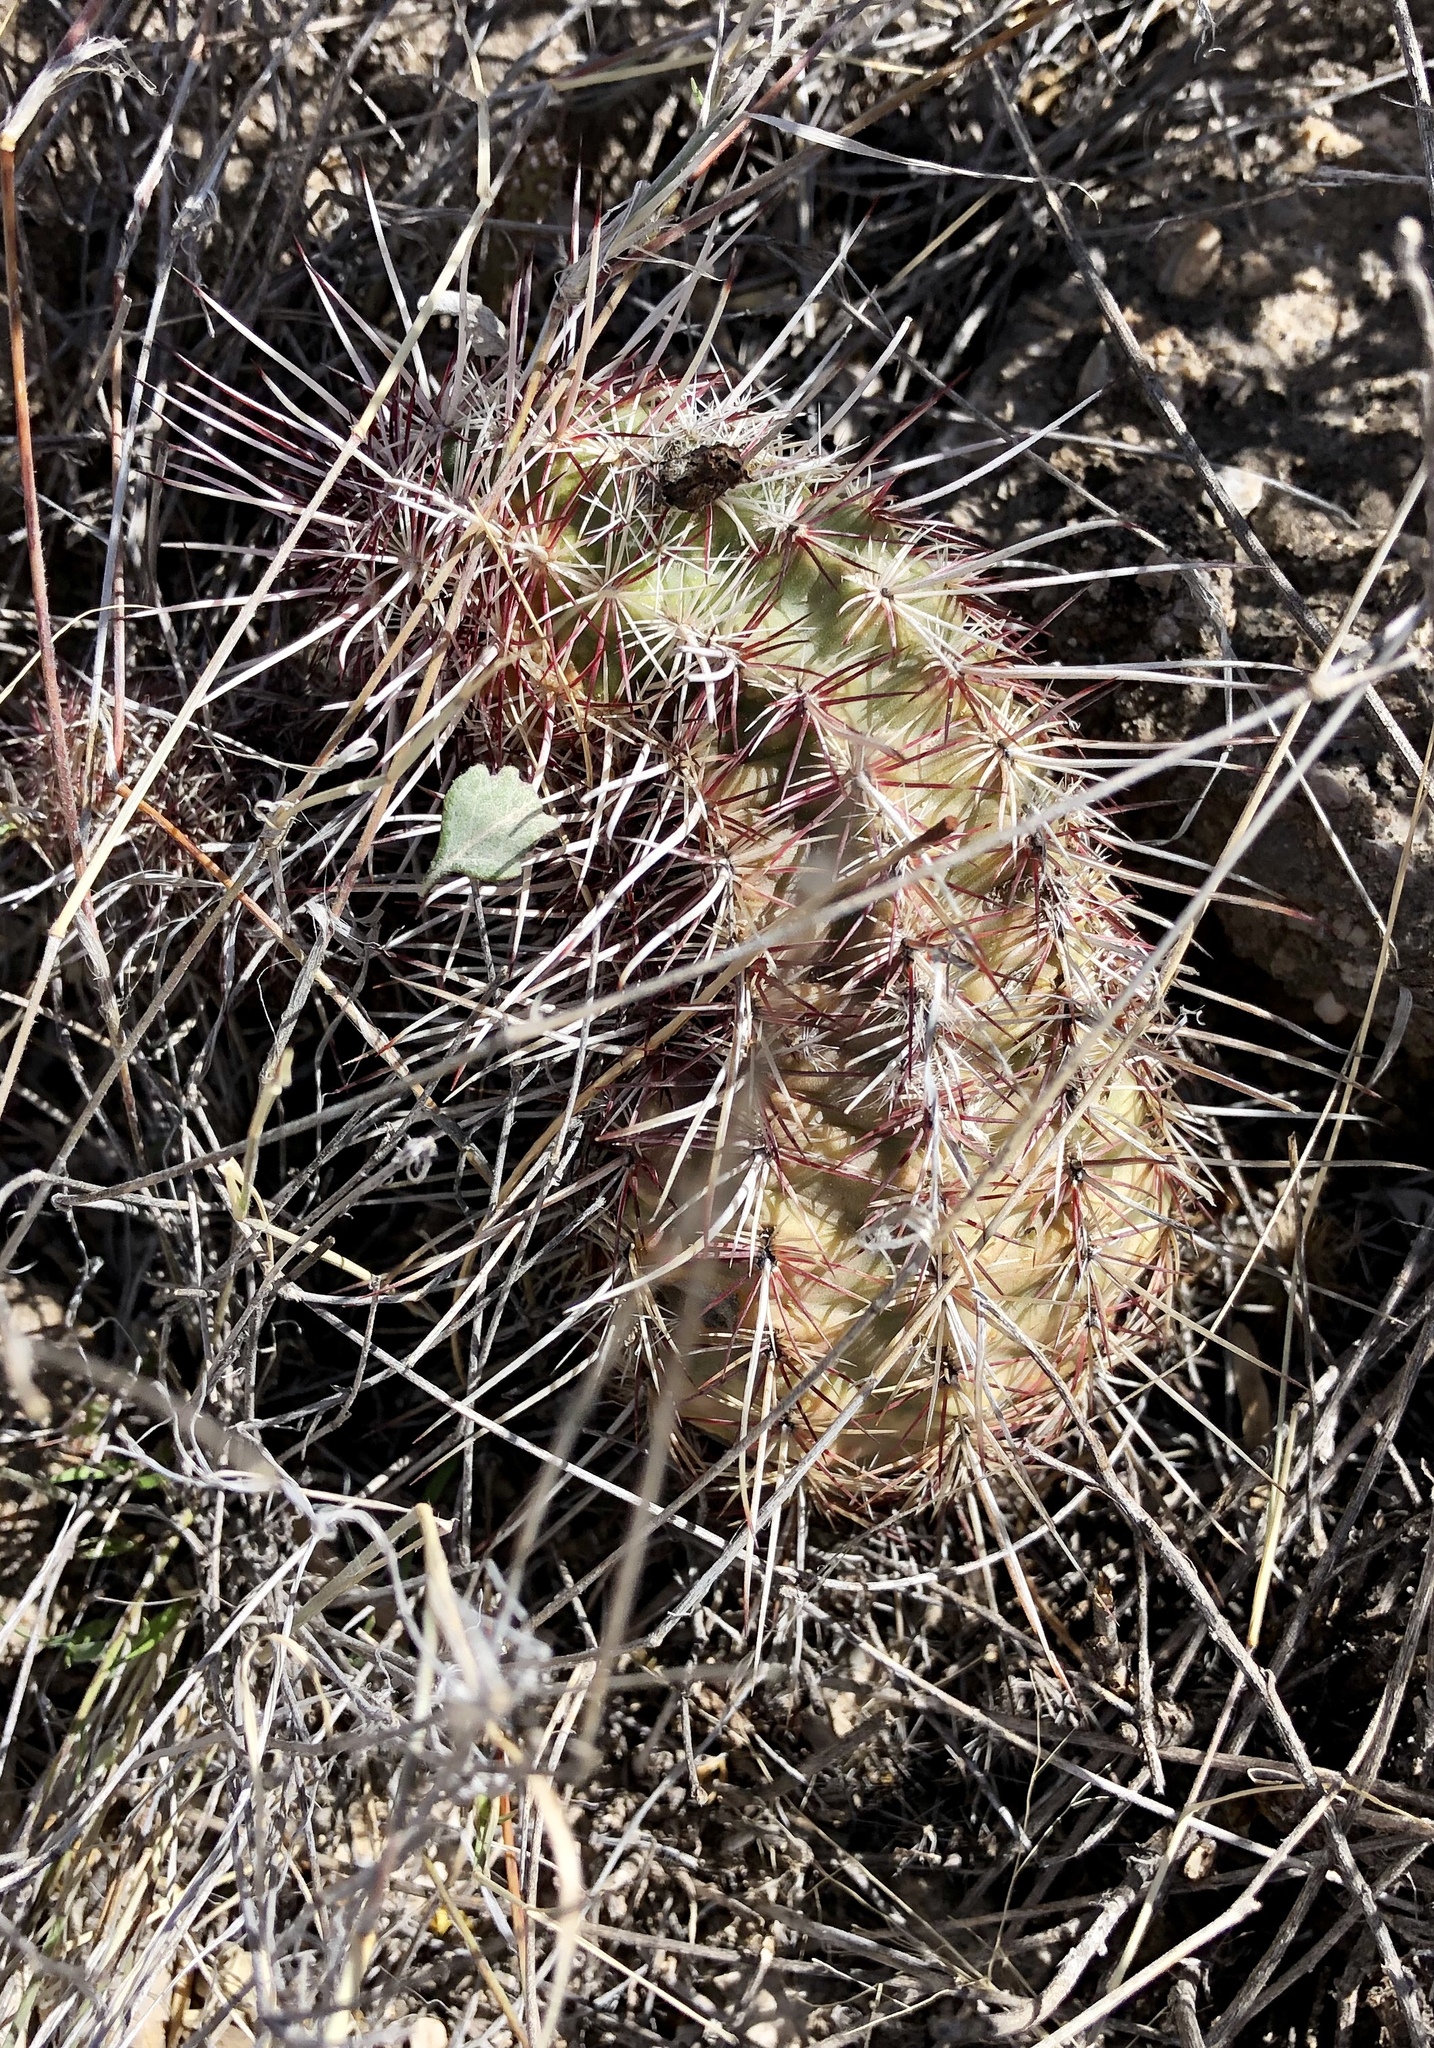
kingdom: Plantae
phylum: Tracheophyta
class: Magnoliopsida
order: Caryophyllales
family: Cactaceae
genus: Echinocereus
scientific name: Echinocereus viridiflorus
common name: Nylon hedgehog cactus
